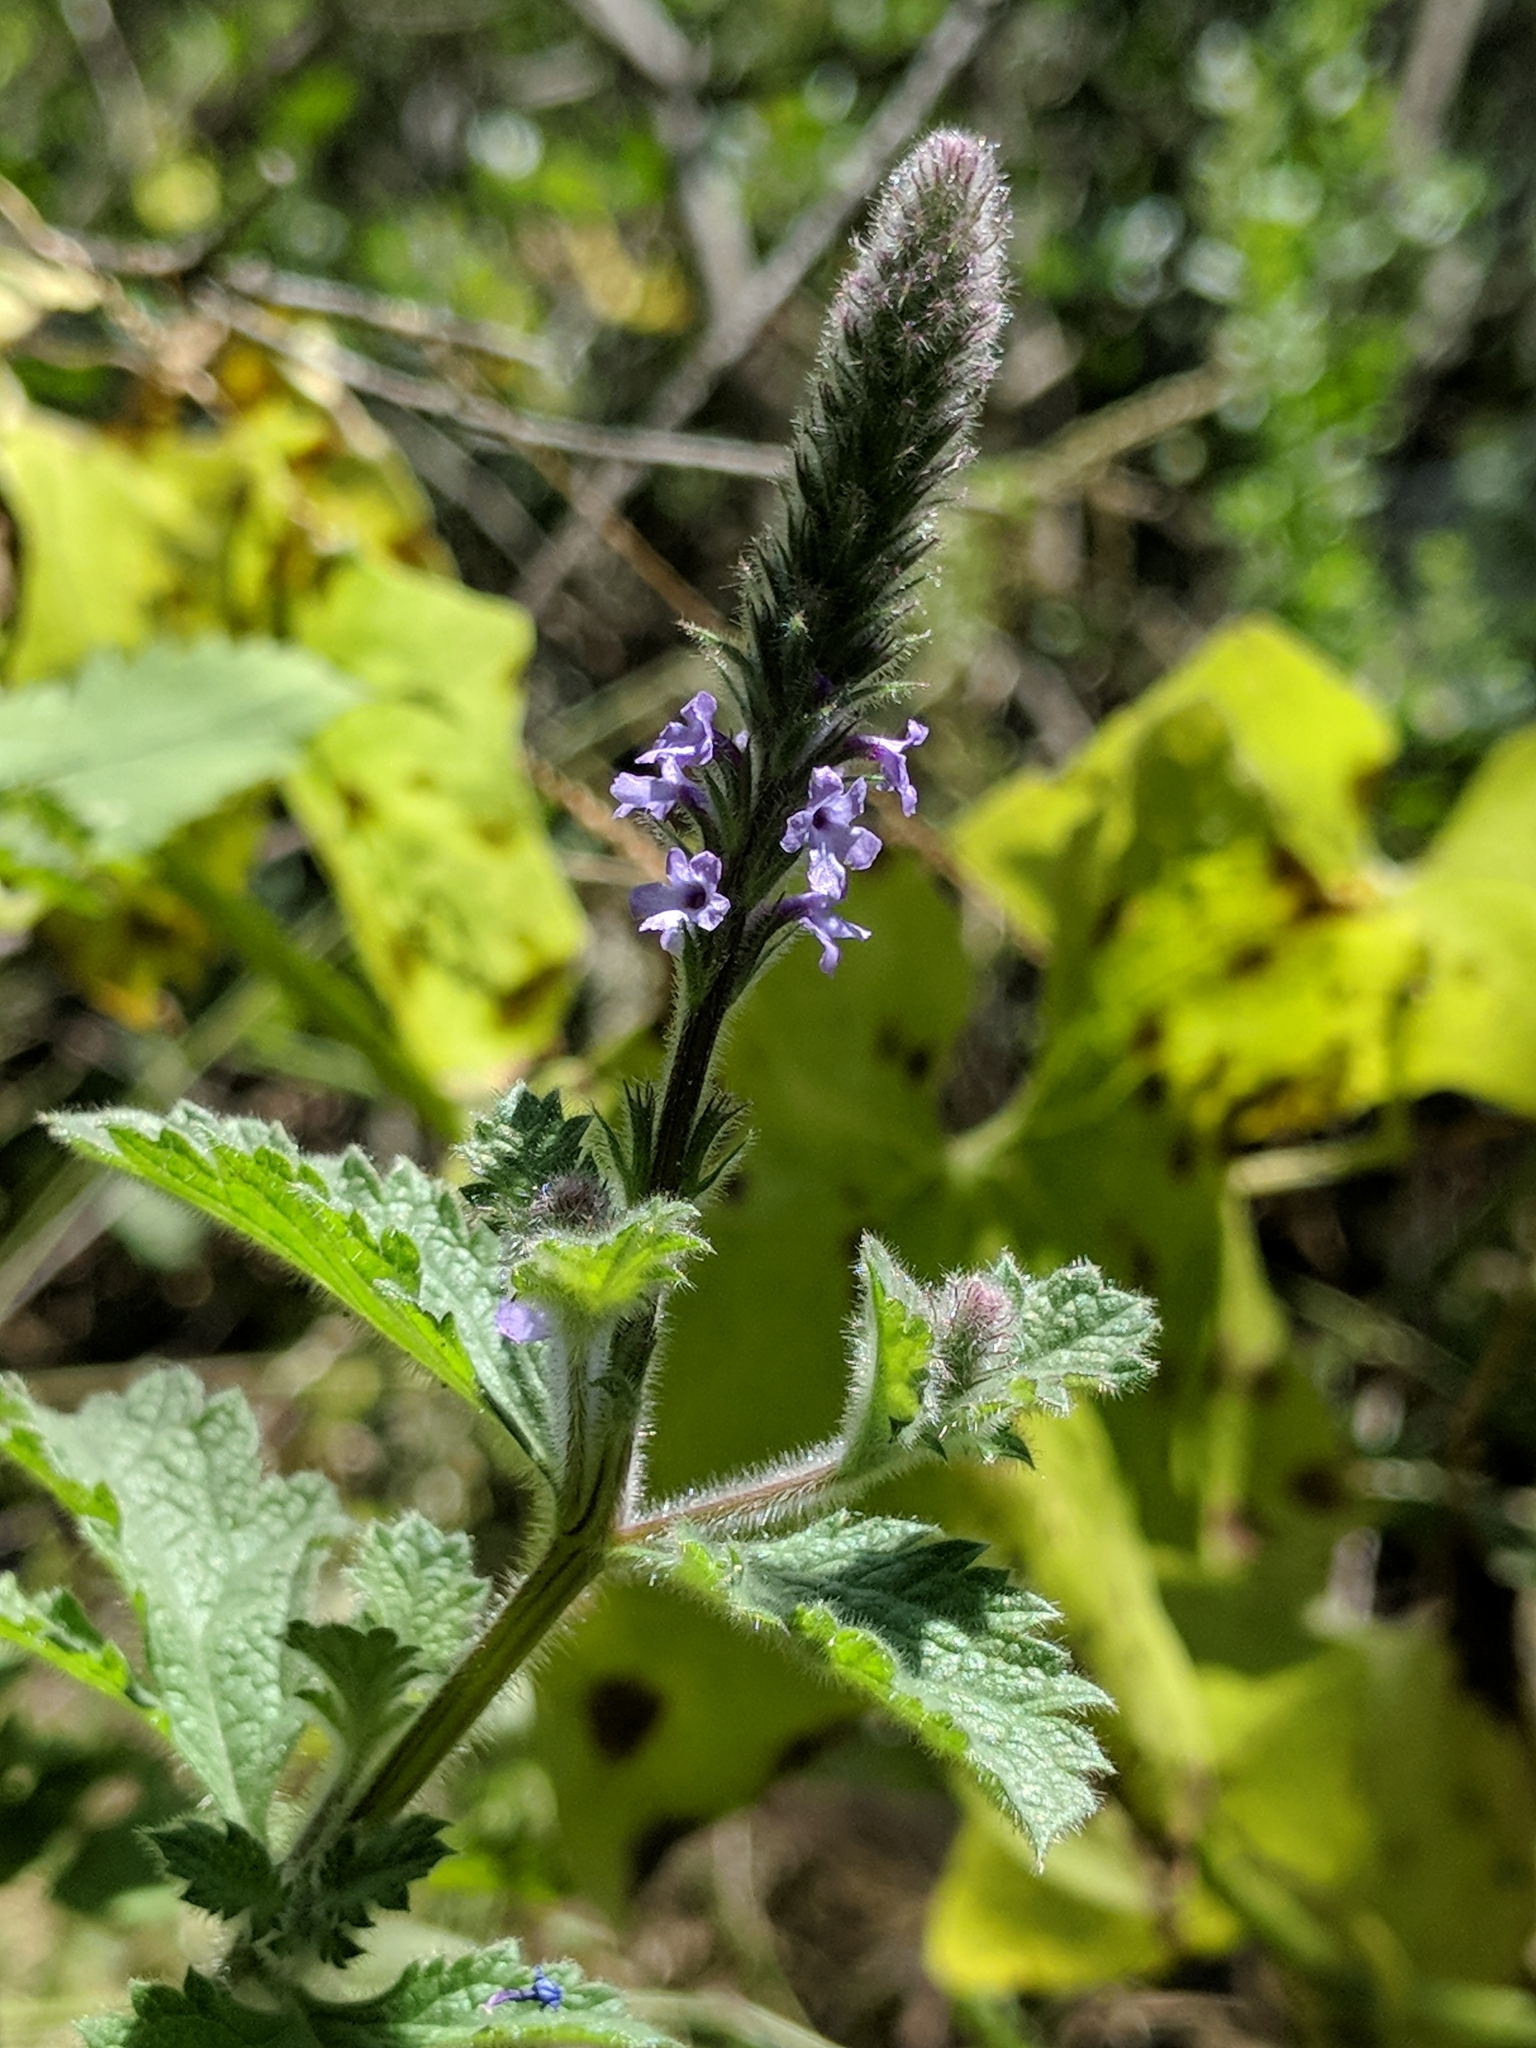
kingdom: Plantae
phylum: Tracheophyta
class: Magnoliopsida
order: Lamiales
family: Verbenaceae
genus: Verbena
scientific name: Verbena lasiostachys
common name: Vervain
